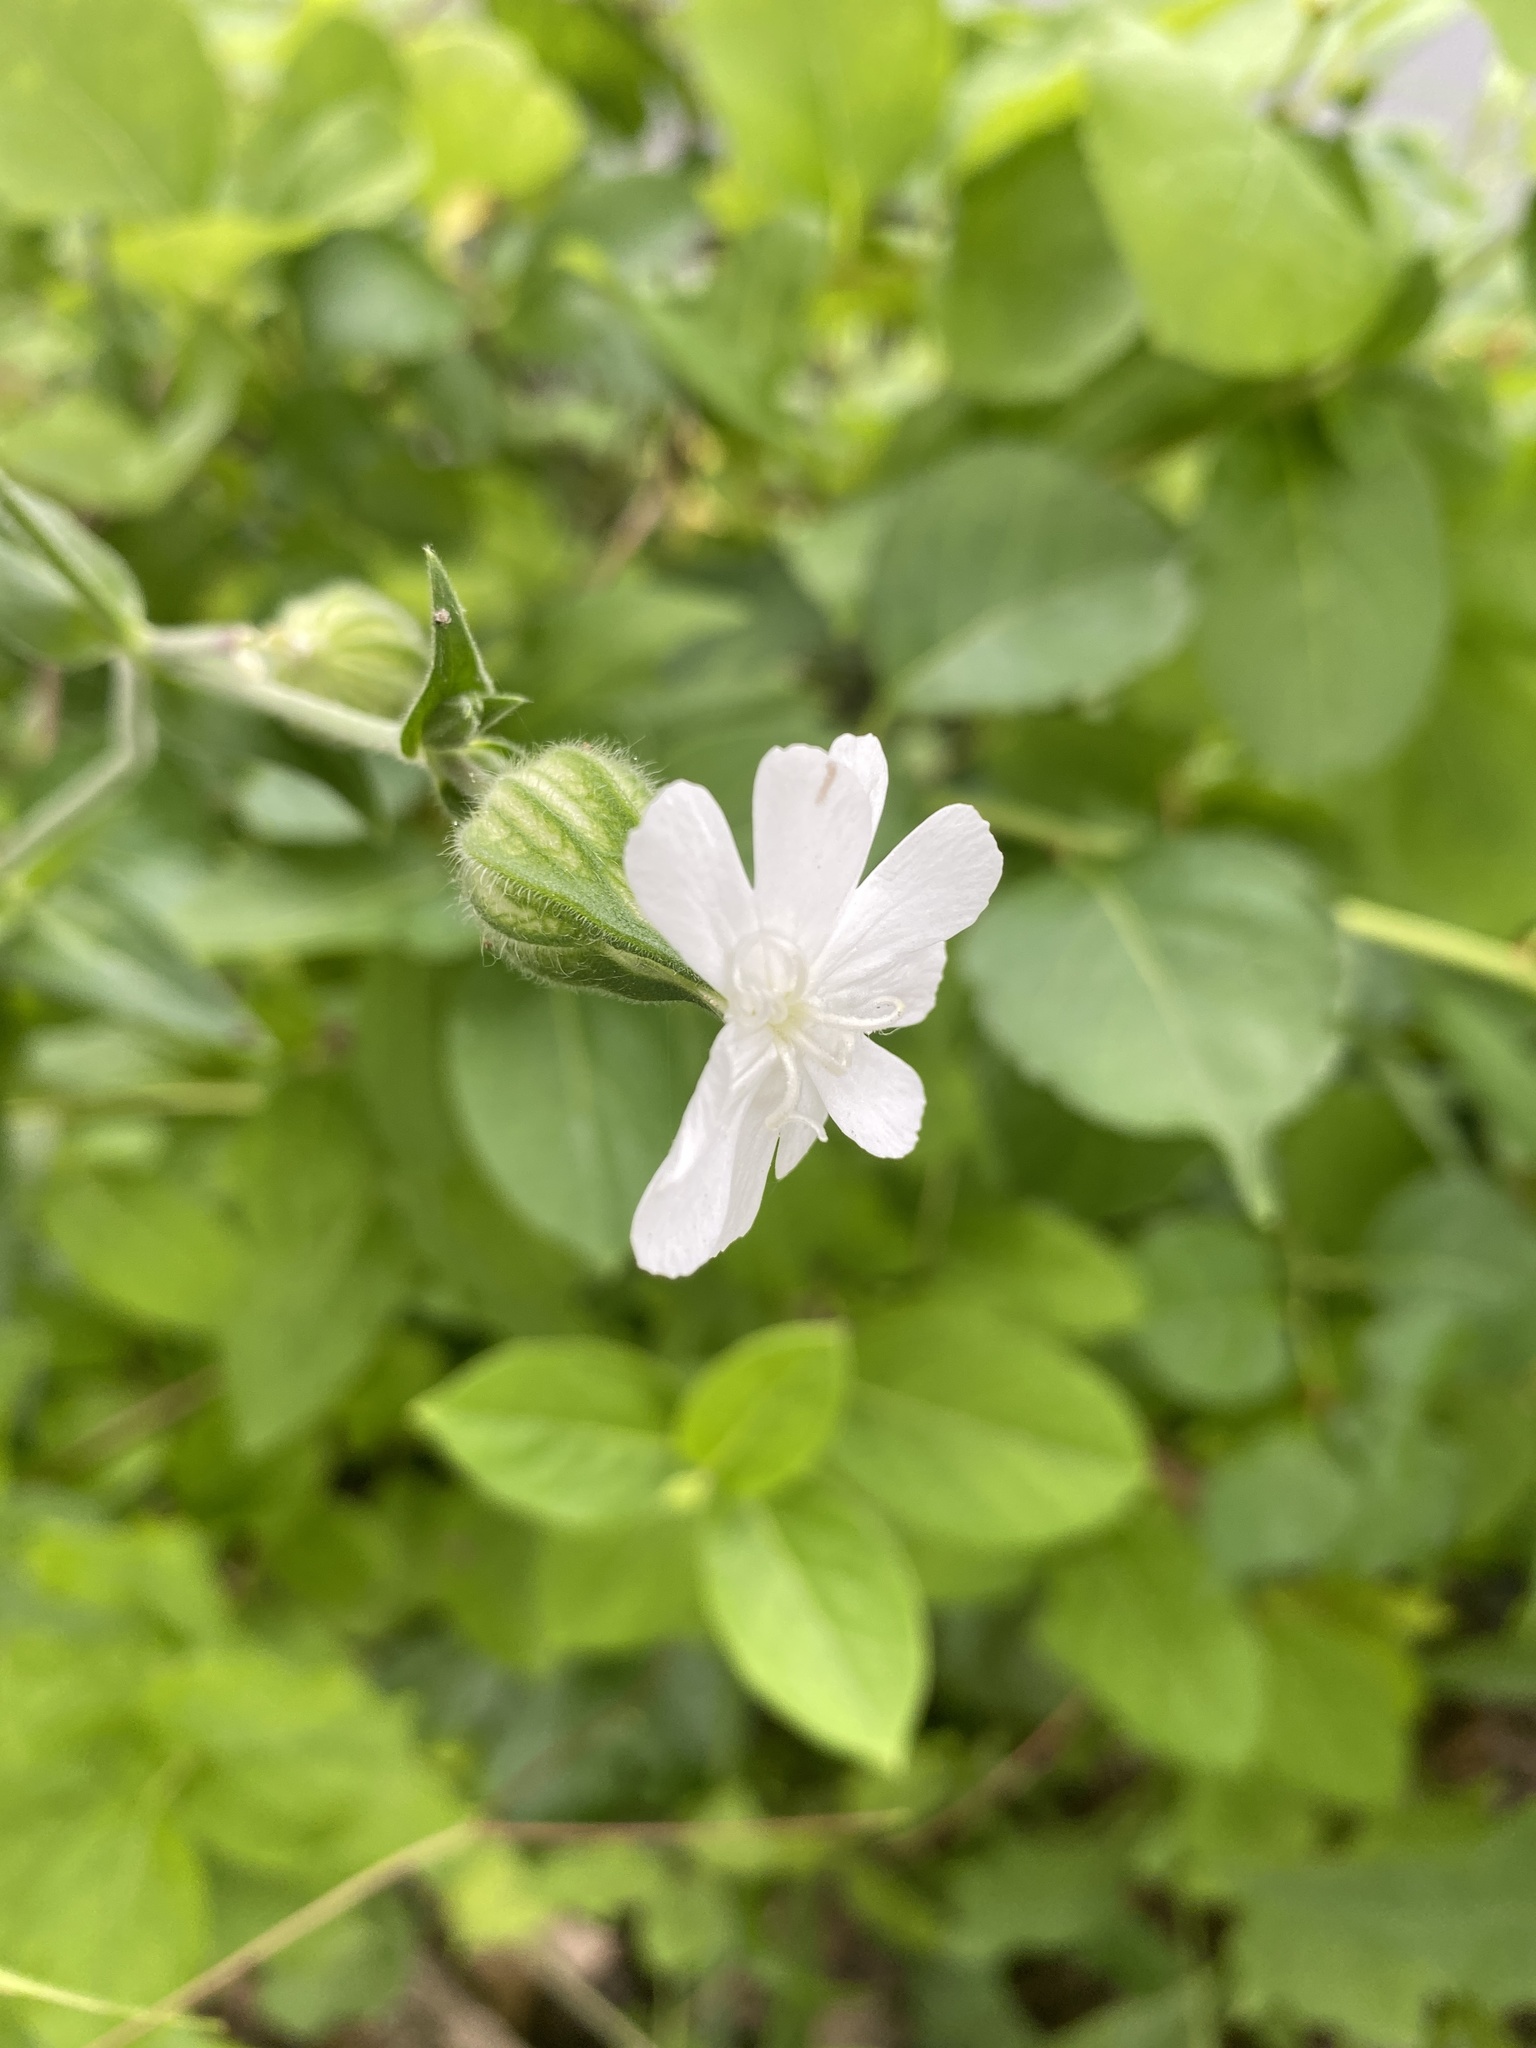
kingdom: Plantae
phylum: Tracheophyta
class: Magnoliopsida
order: Caryophyllales
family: Caryophyllaceae
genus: Silene
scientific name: Silene latifolia
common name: White campion
